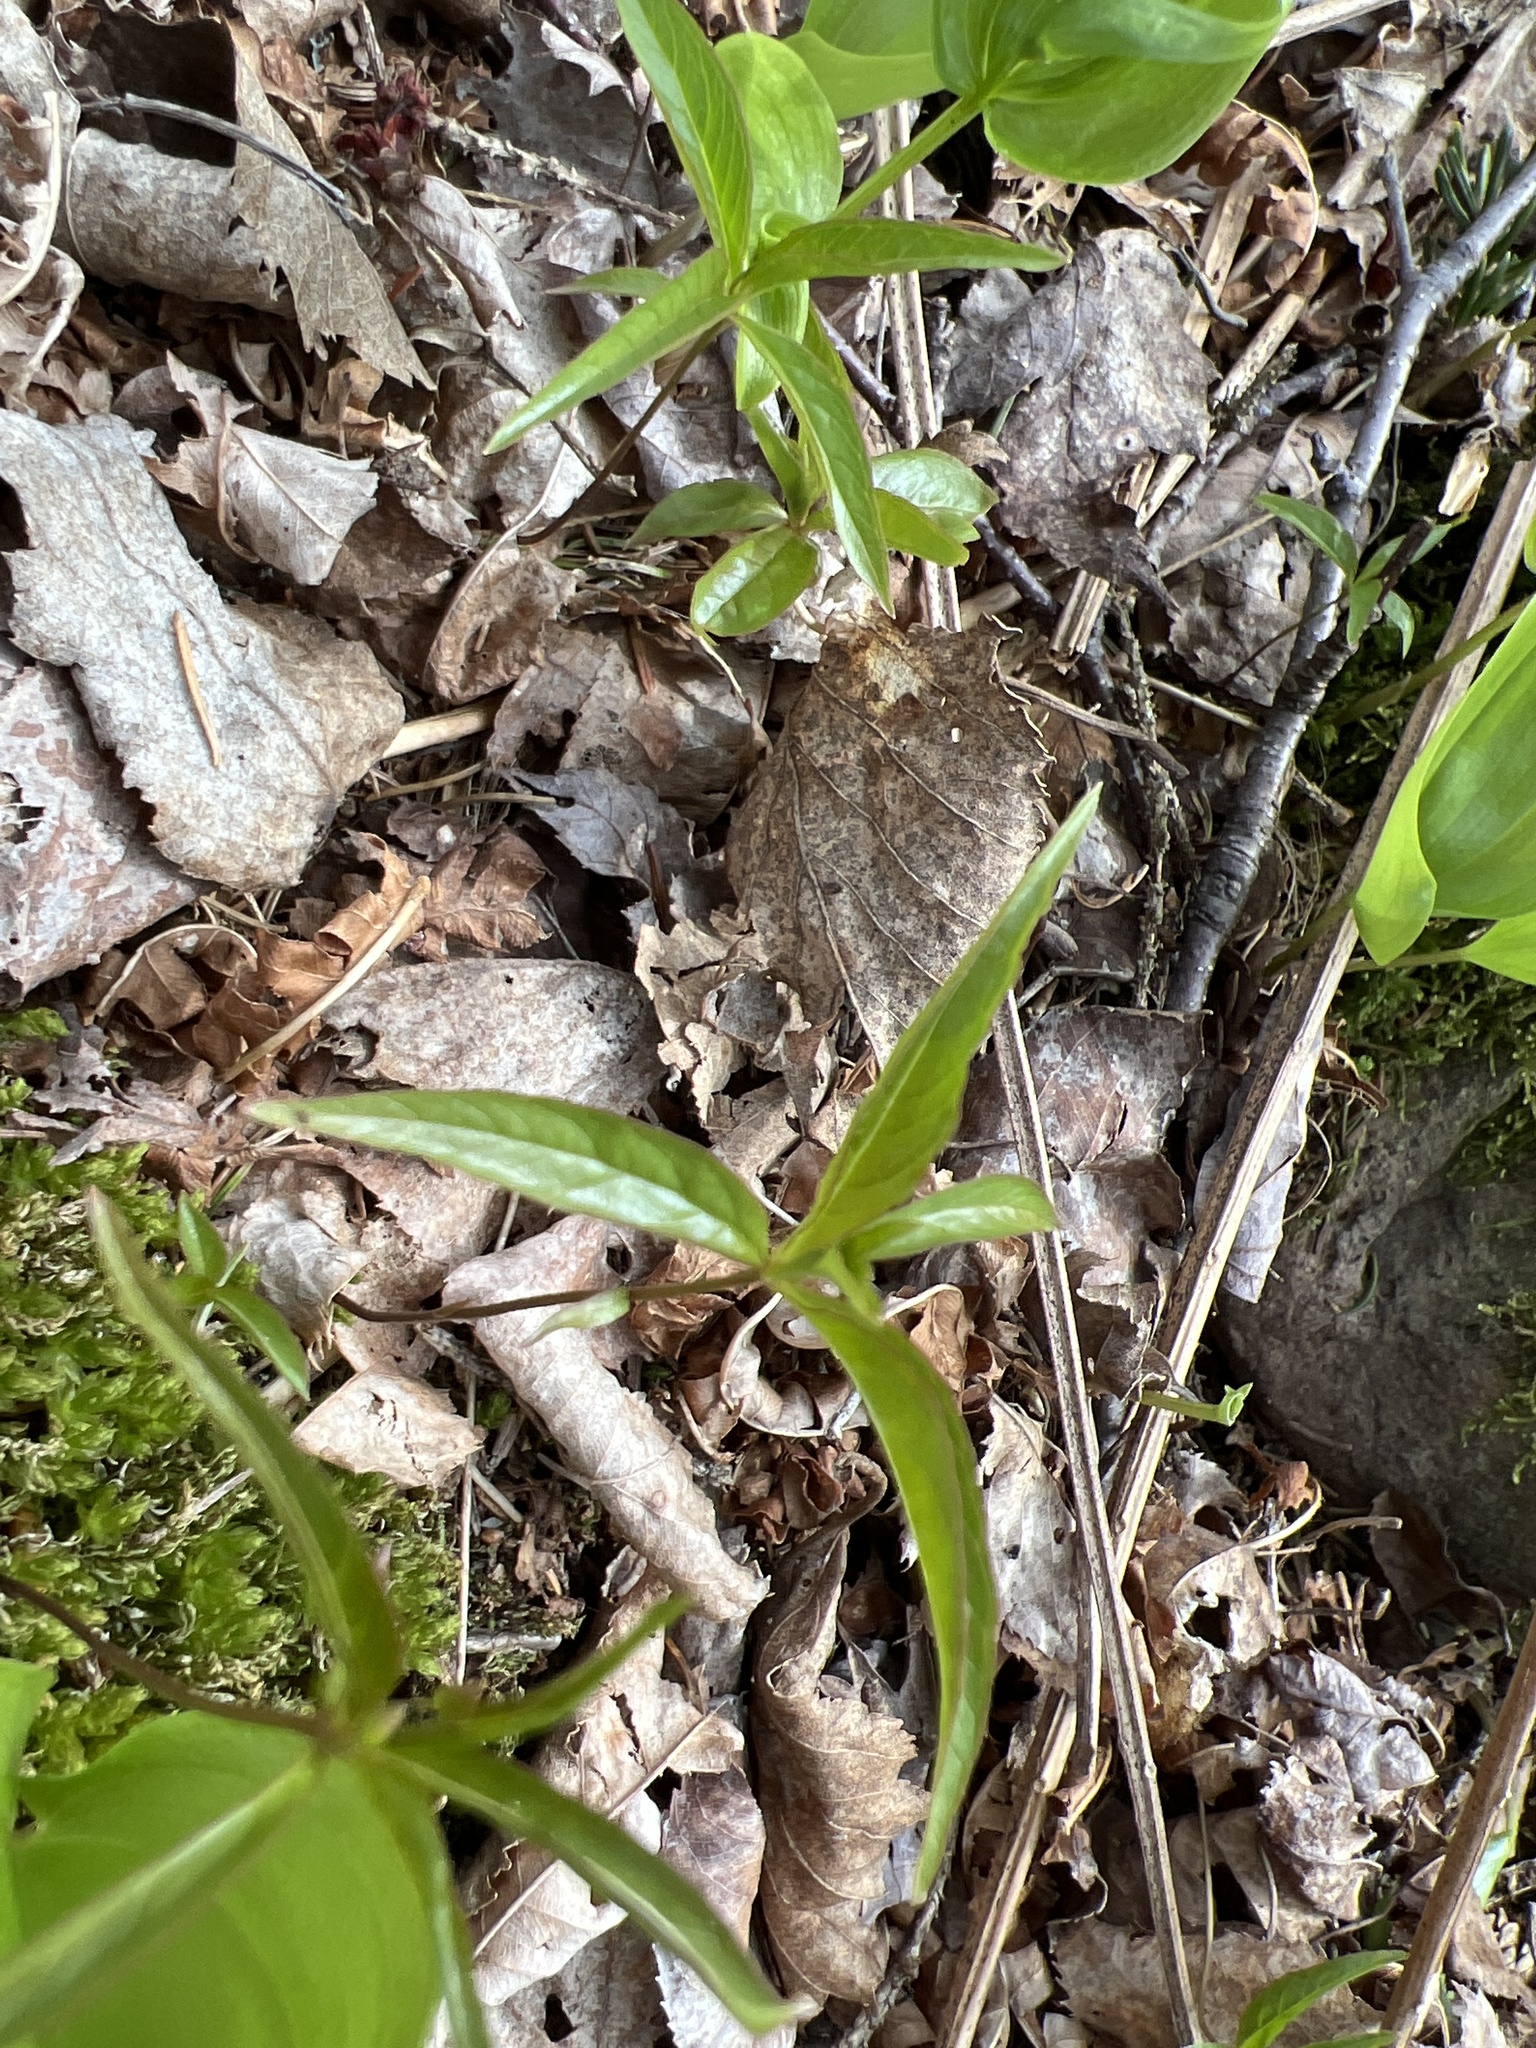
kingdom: Plantae
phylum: Tracheophyta
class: Magnoliopsida
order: Ericales
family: Primulaceae
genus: Lysimachia
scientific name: Lysimachia borealis
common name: American starflower
